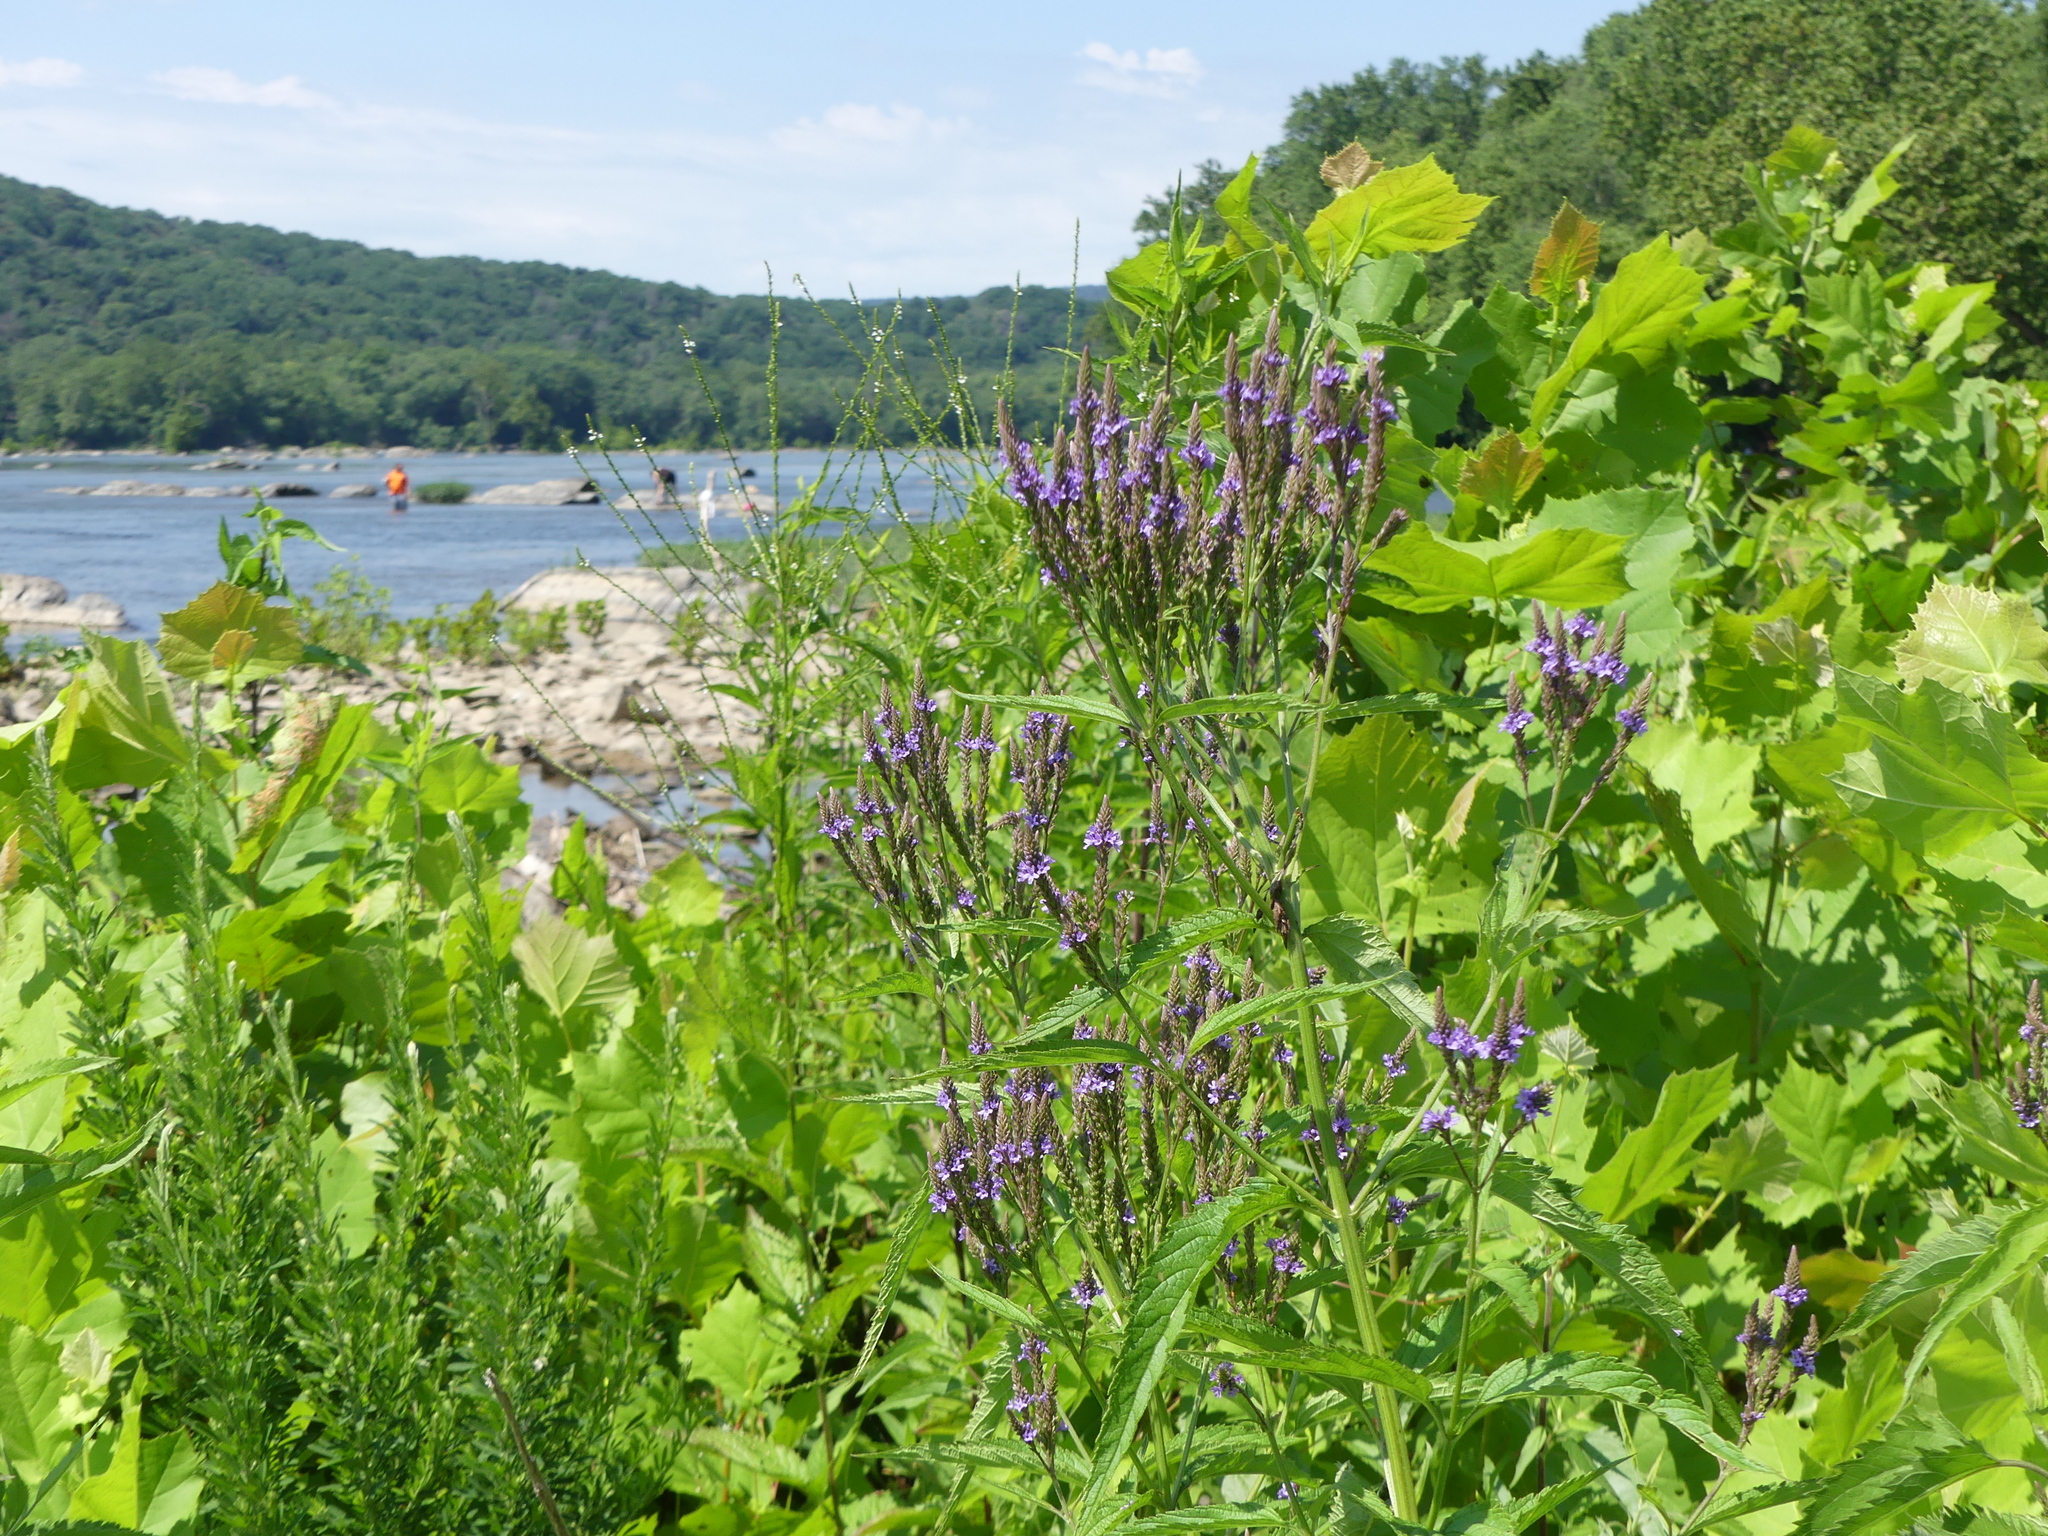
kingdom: Plantae
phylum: Tracheophyta
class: Magnoliopsida
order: Lamiales
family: Verbenaceae
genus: Verbena
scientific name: Verbena hastata
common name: American blue vervain
